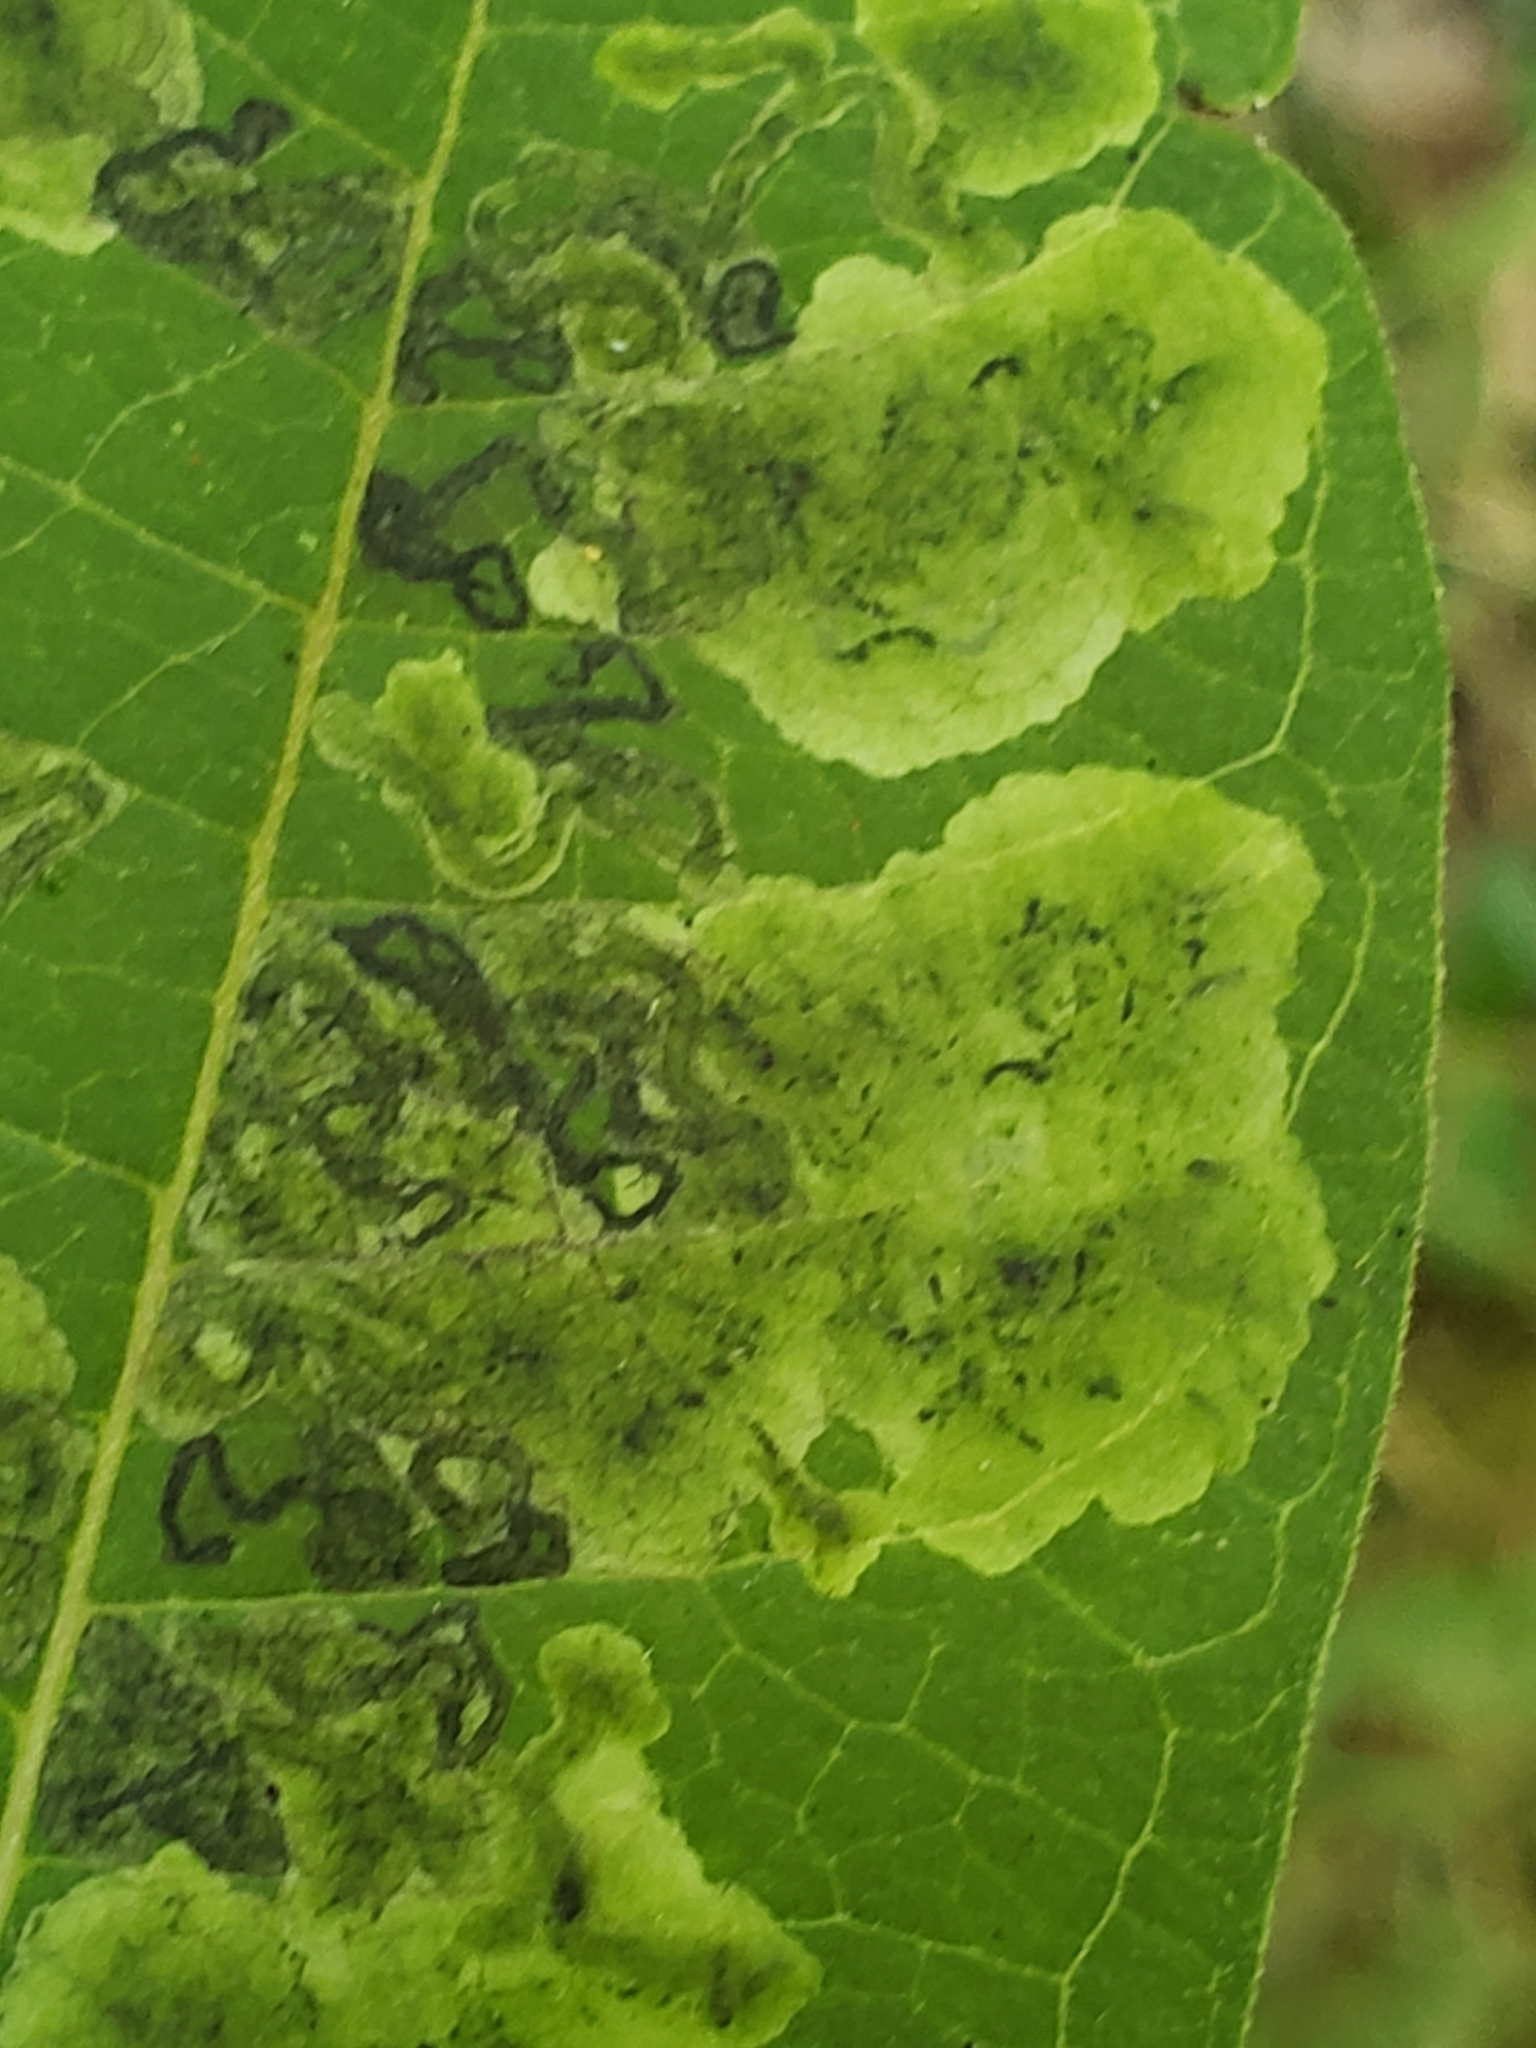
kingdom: Animalia
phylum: Arthropoda
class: Insecta
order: Diptera
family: Agromyzidae
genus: Liriomyza
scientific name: Liriomyza asclepiadis
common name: Milkweed leaf-miner fly
